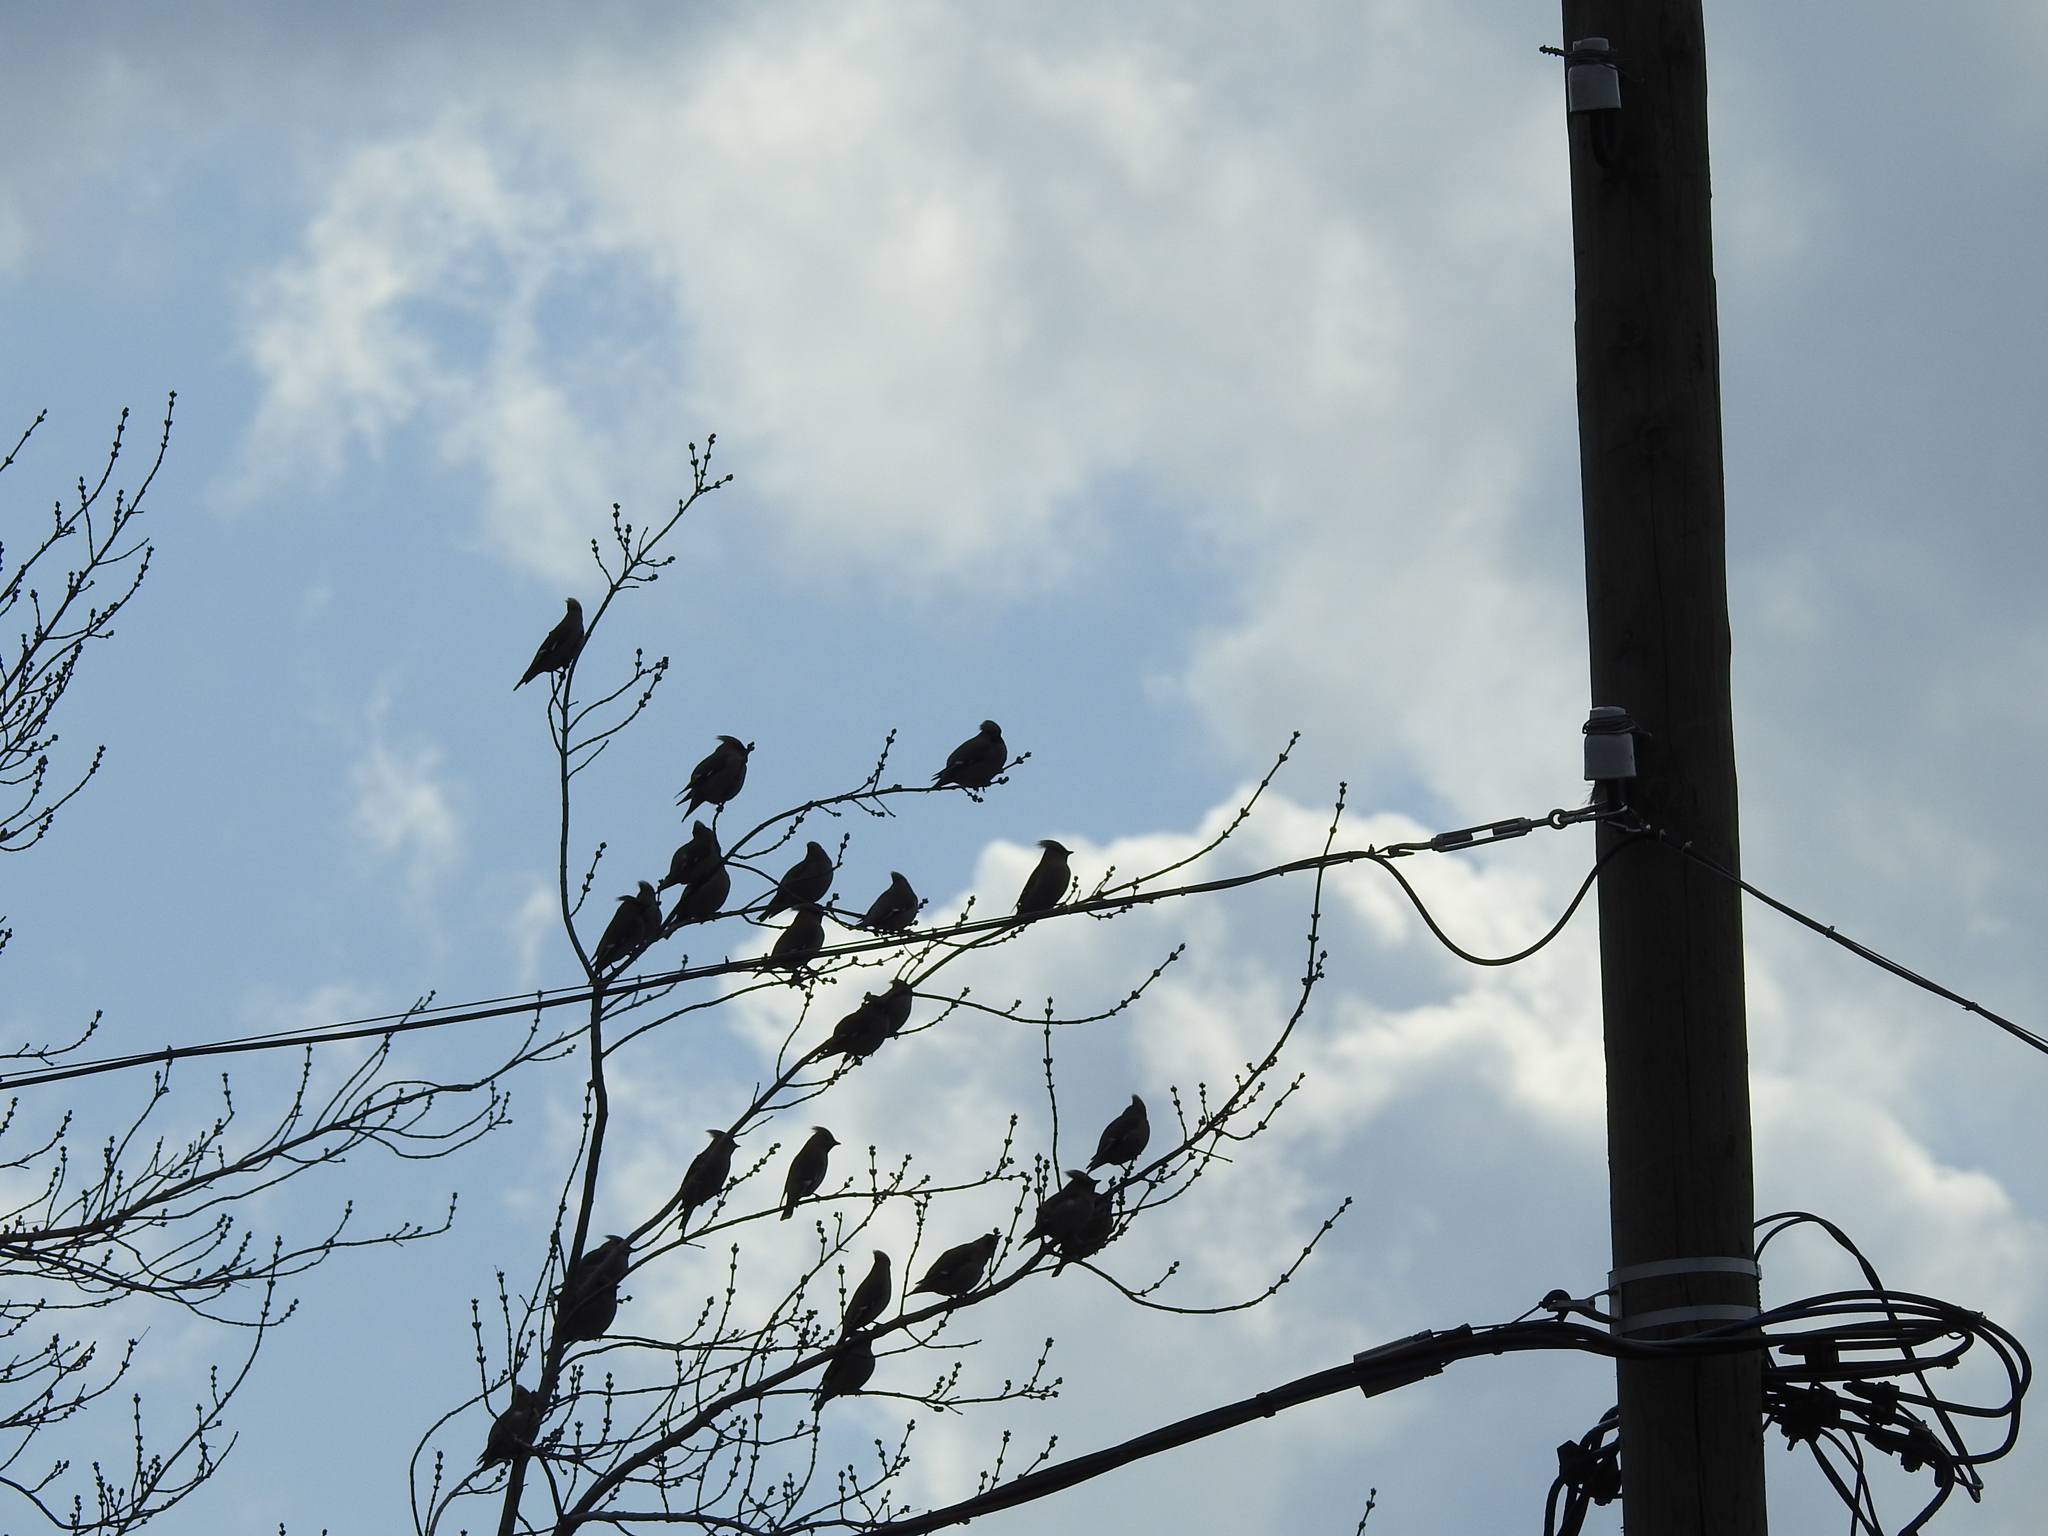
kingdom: Animalia
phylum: Chordata
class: Aves
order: Passeriformes
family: Bombycillidae
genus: Bombycilla
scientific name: Bombycilla garrulus
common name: Bohemian waxwing
